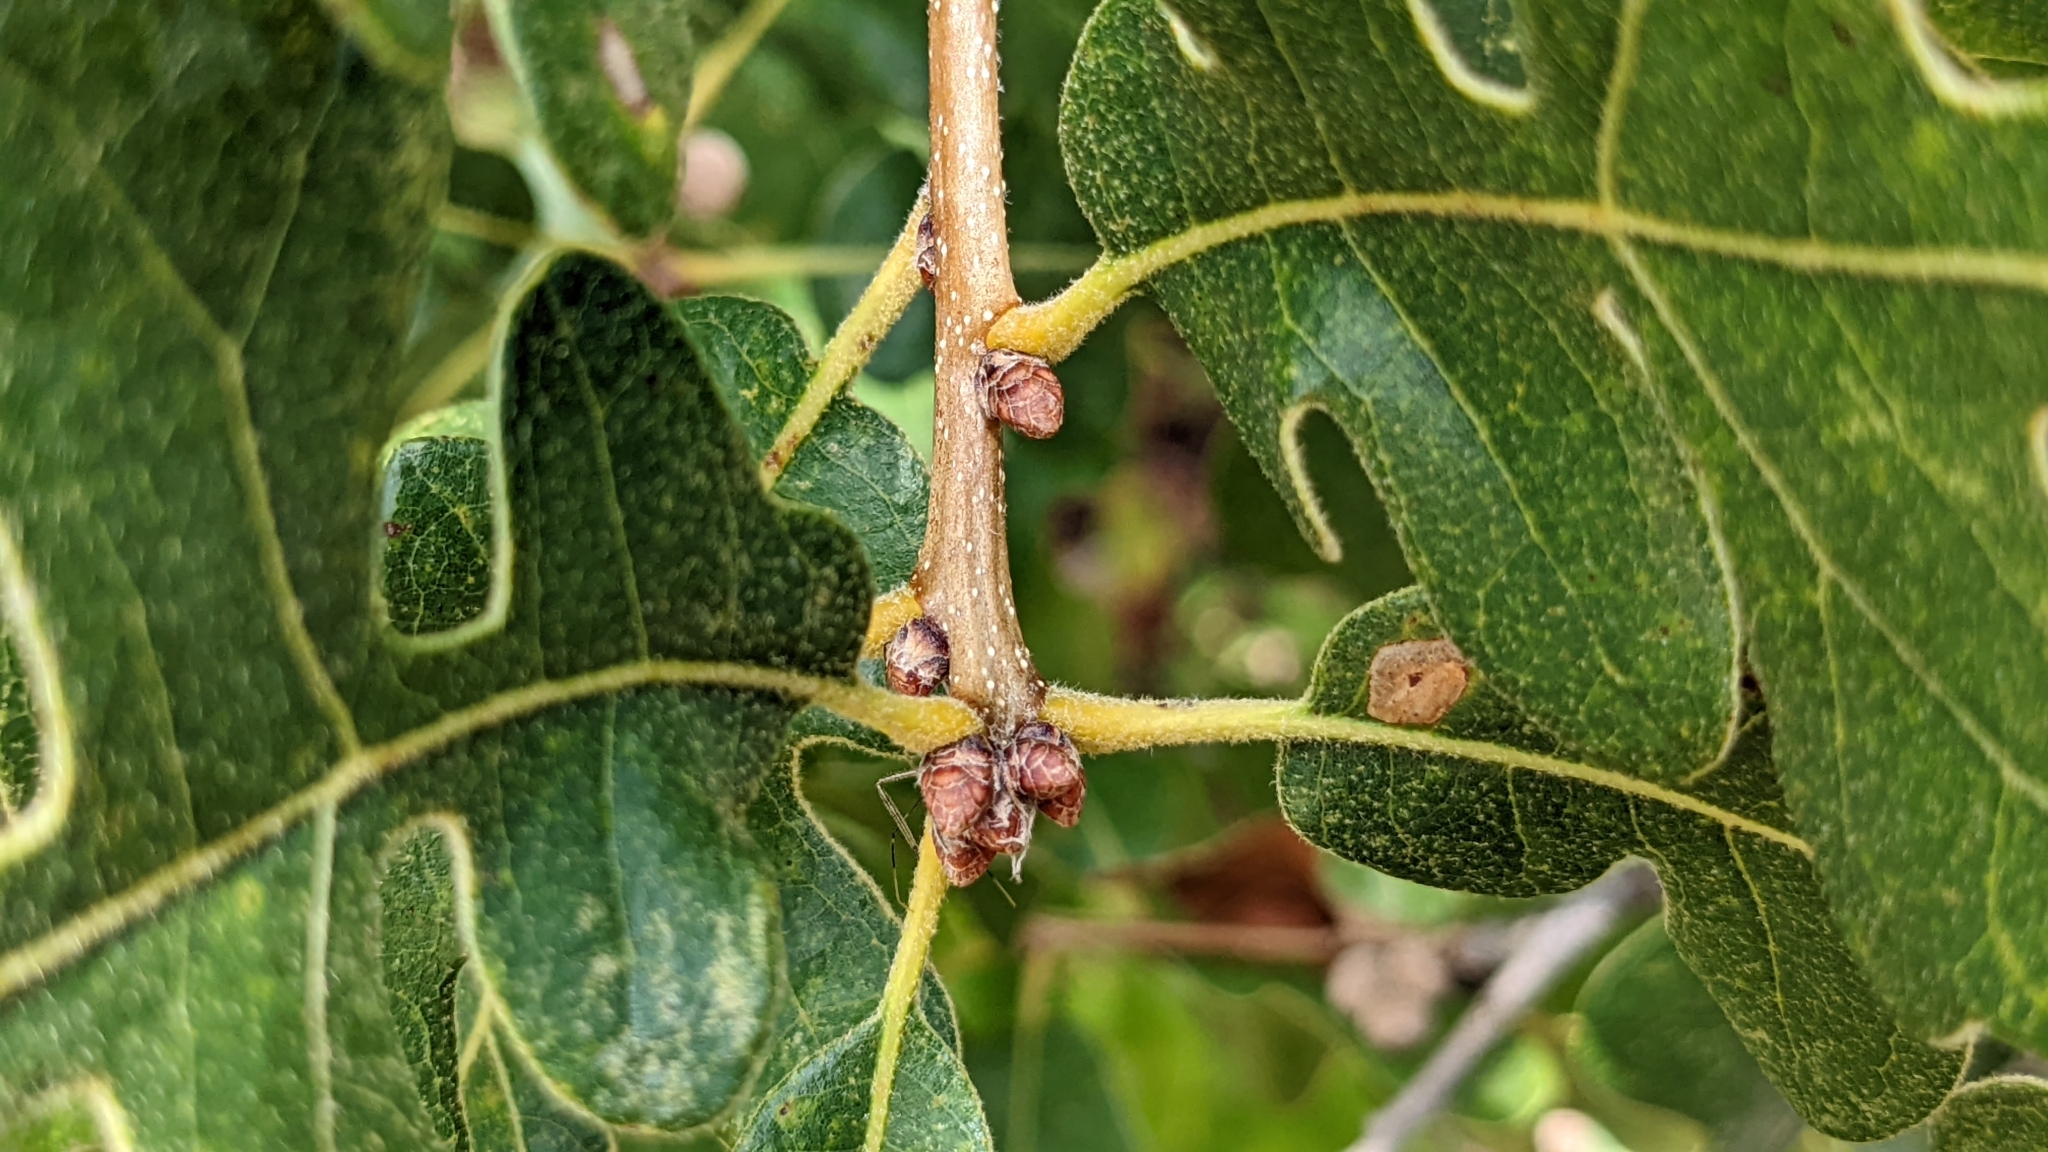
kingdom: Plantae
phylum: Tracheophyta
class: Magnoliopsida
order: Fagales
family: Fagaceae
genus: Quercus
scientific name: Quercus margaretiae
